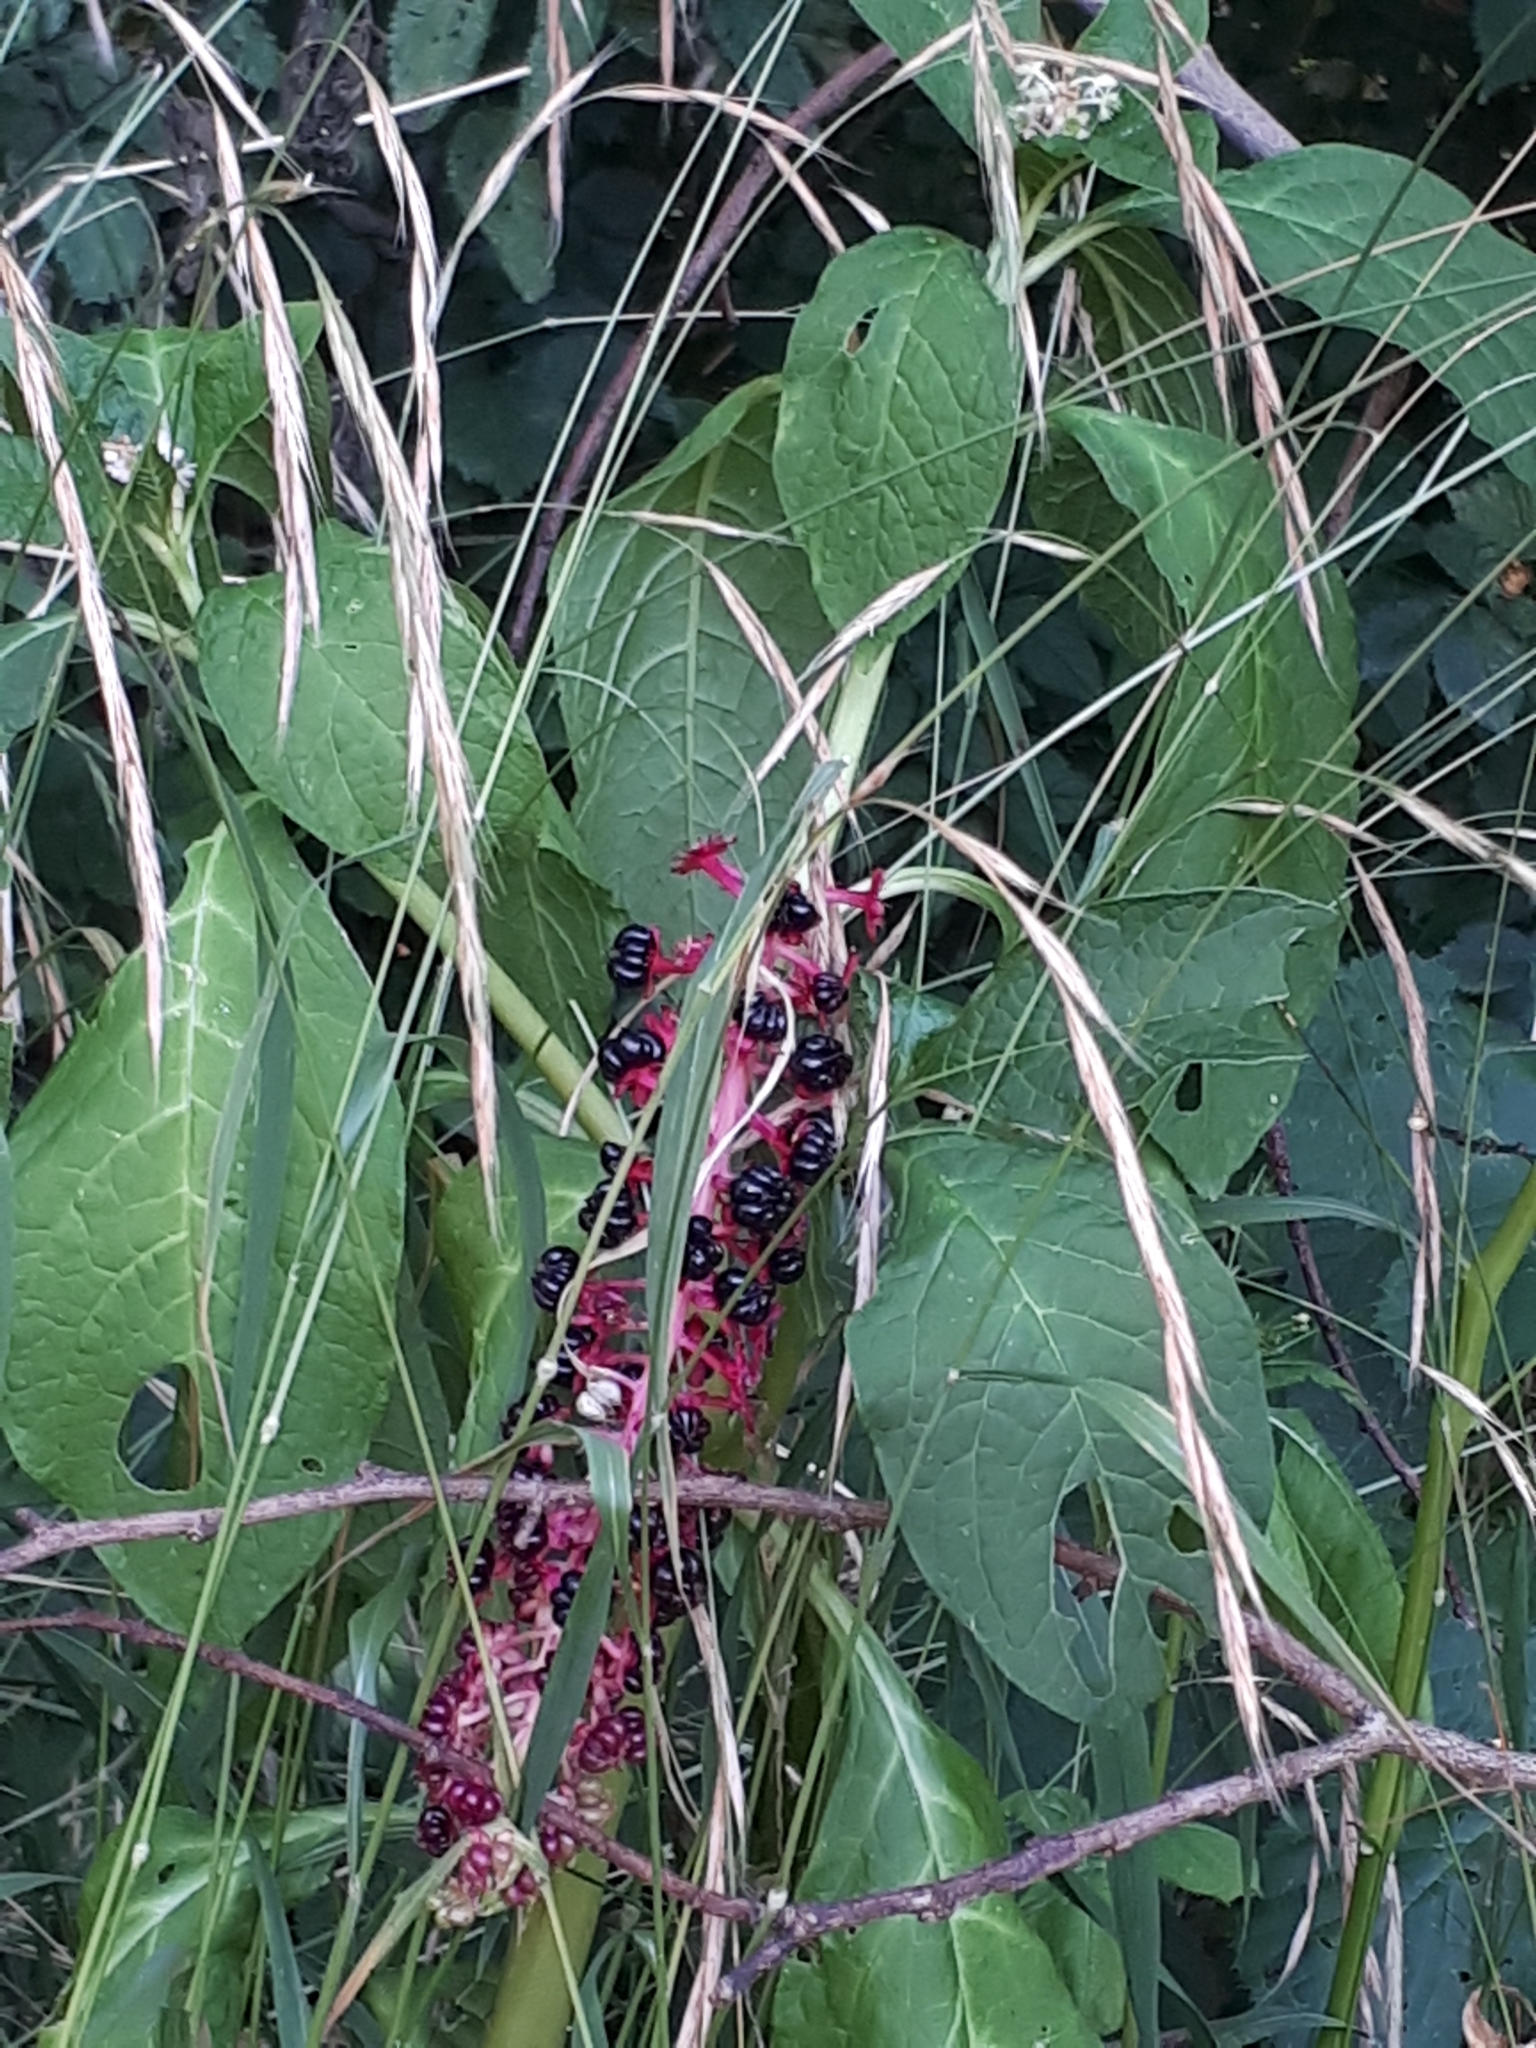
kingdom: Plantae
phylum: Tracheophyta
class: Magnoliopsida
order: Caryophyllales
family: Phytolaccaceae
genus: Phytolacca
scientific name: Phytolacca acinosa
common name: Indian pokeweed
